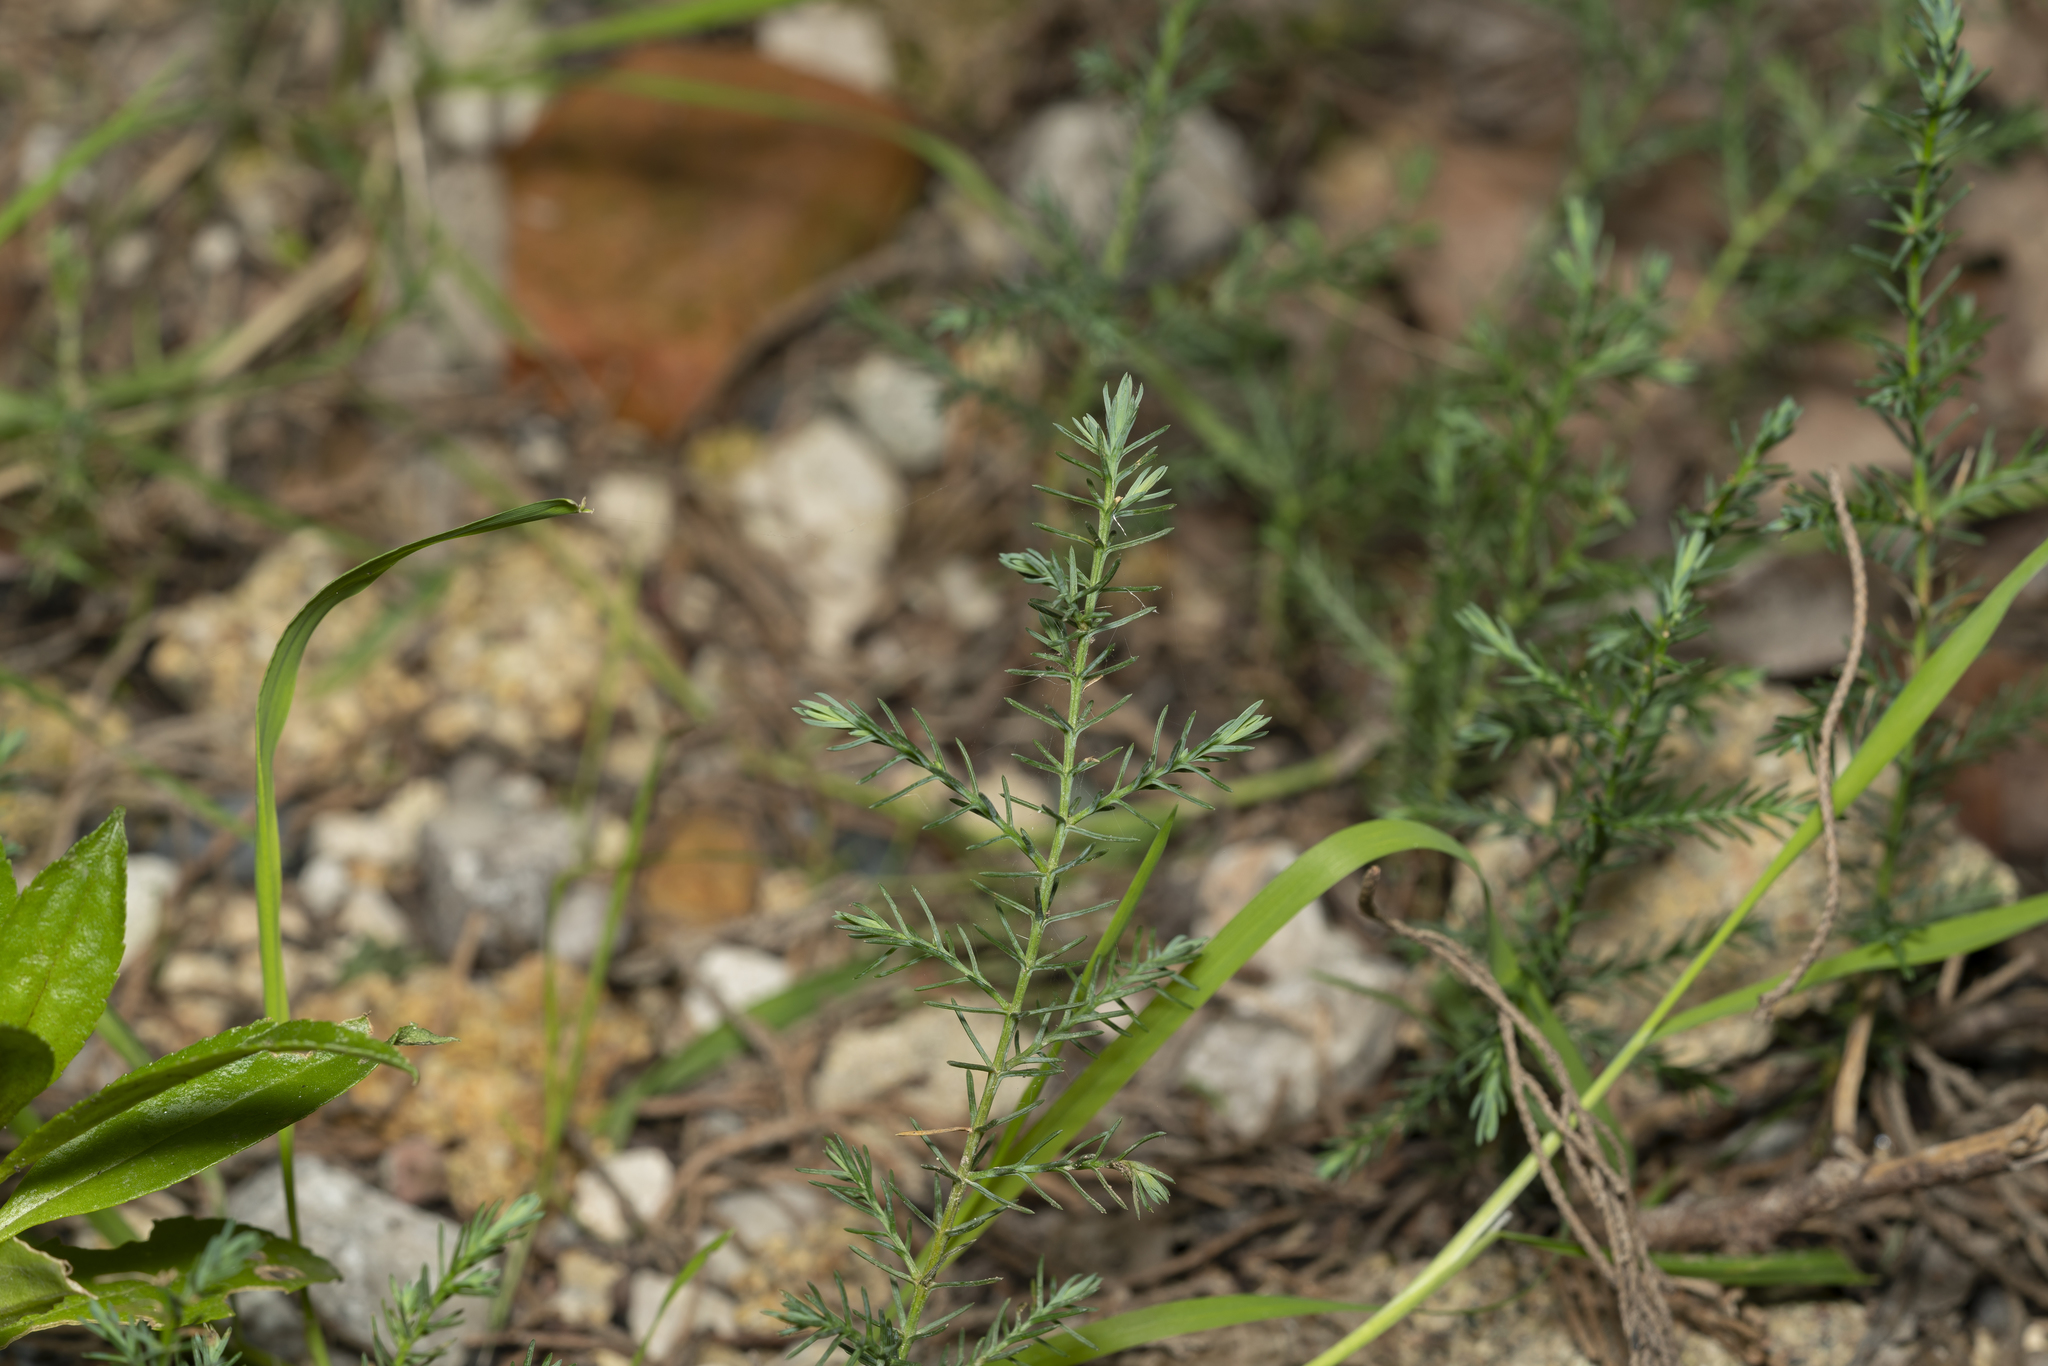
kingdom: Plantae
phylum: Tracheophyta
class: Pinopsida
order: Pinales
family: Cupressaceae
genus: Cupressus
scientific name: Cupressus sempervirens
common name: Italian cypress
